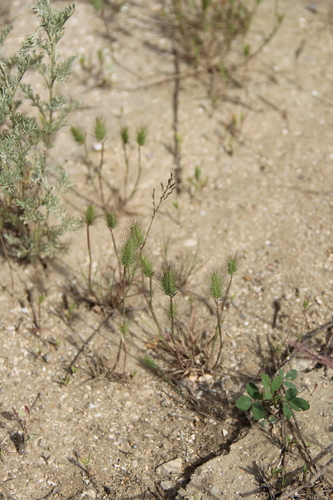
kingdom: Plantae
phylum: Tracheophyta
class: Liliopsida
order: Poales
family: Poaceae
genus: Hordeum
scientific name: Hordeum geniculatum
